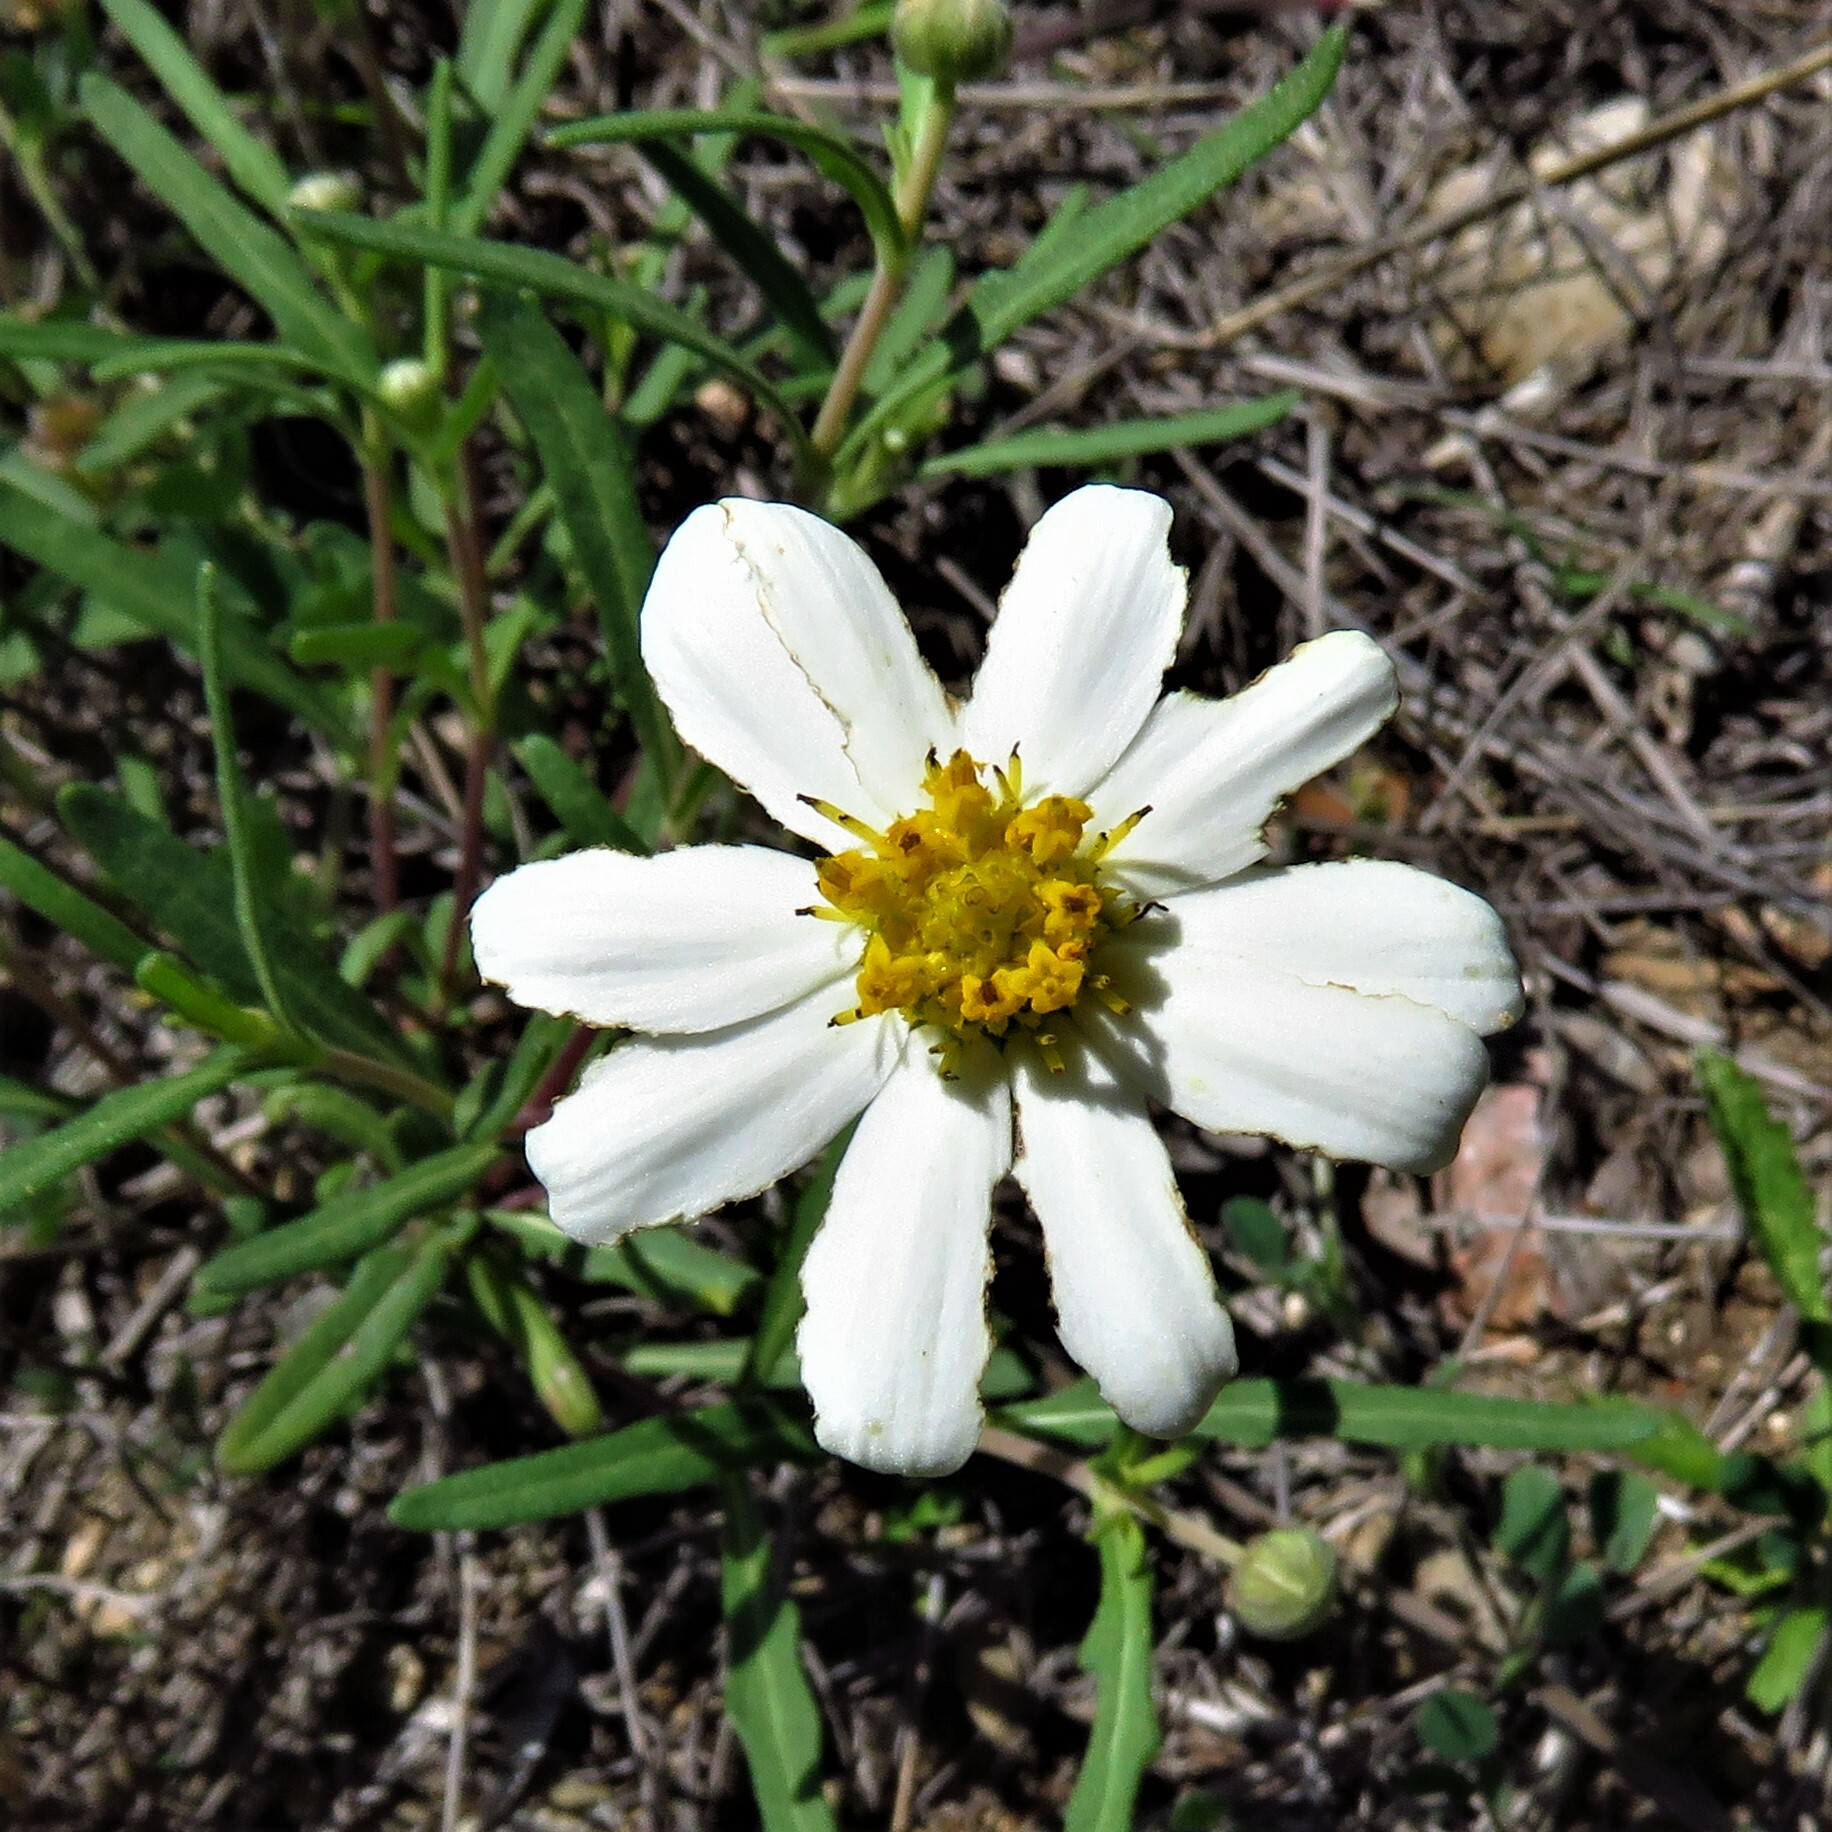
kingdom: Plantae
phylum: Tracheophyta
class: Magnoliopsida
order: Asterales
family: Asteraceae
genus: Melampodium
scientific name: Melampodium leucanthum
